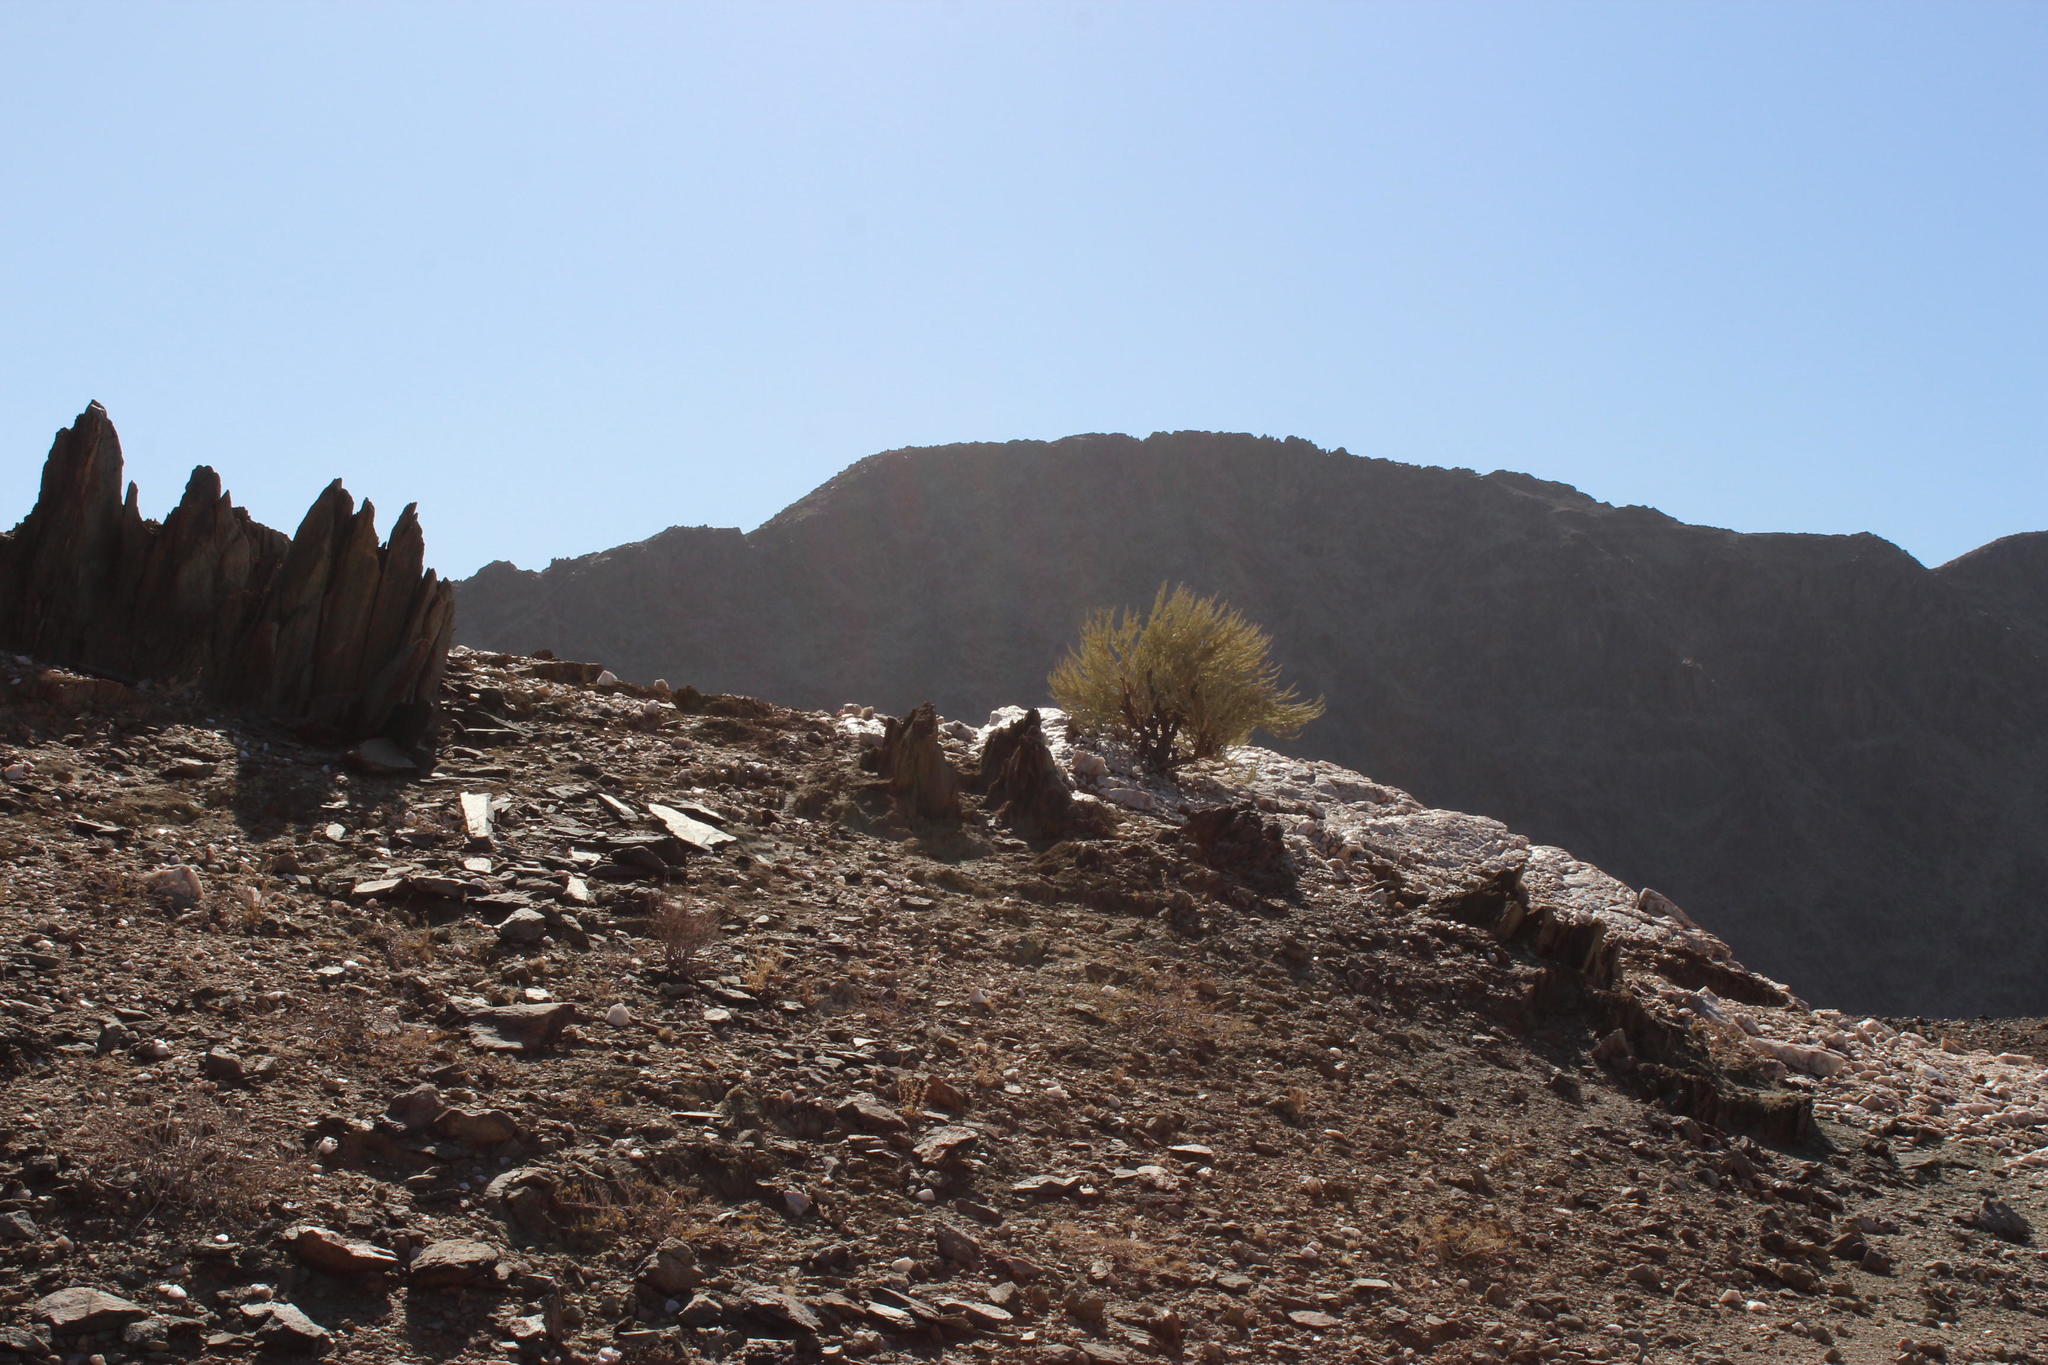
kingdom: Plantae
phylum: Tracheophyta
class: Magnoliopsida
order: Caryophyllales
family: Didiereaceae
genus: Portulacaria
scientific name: Portulacaria namaquensis
